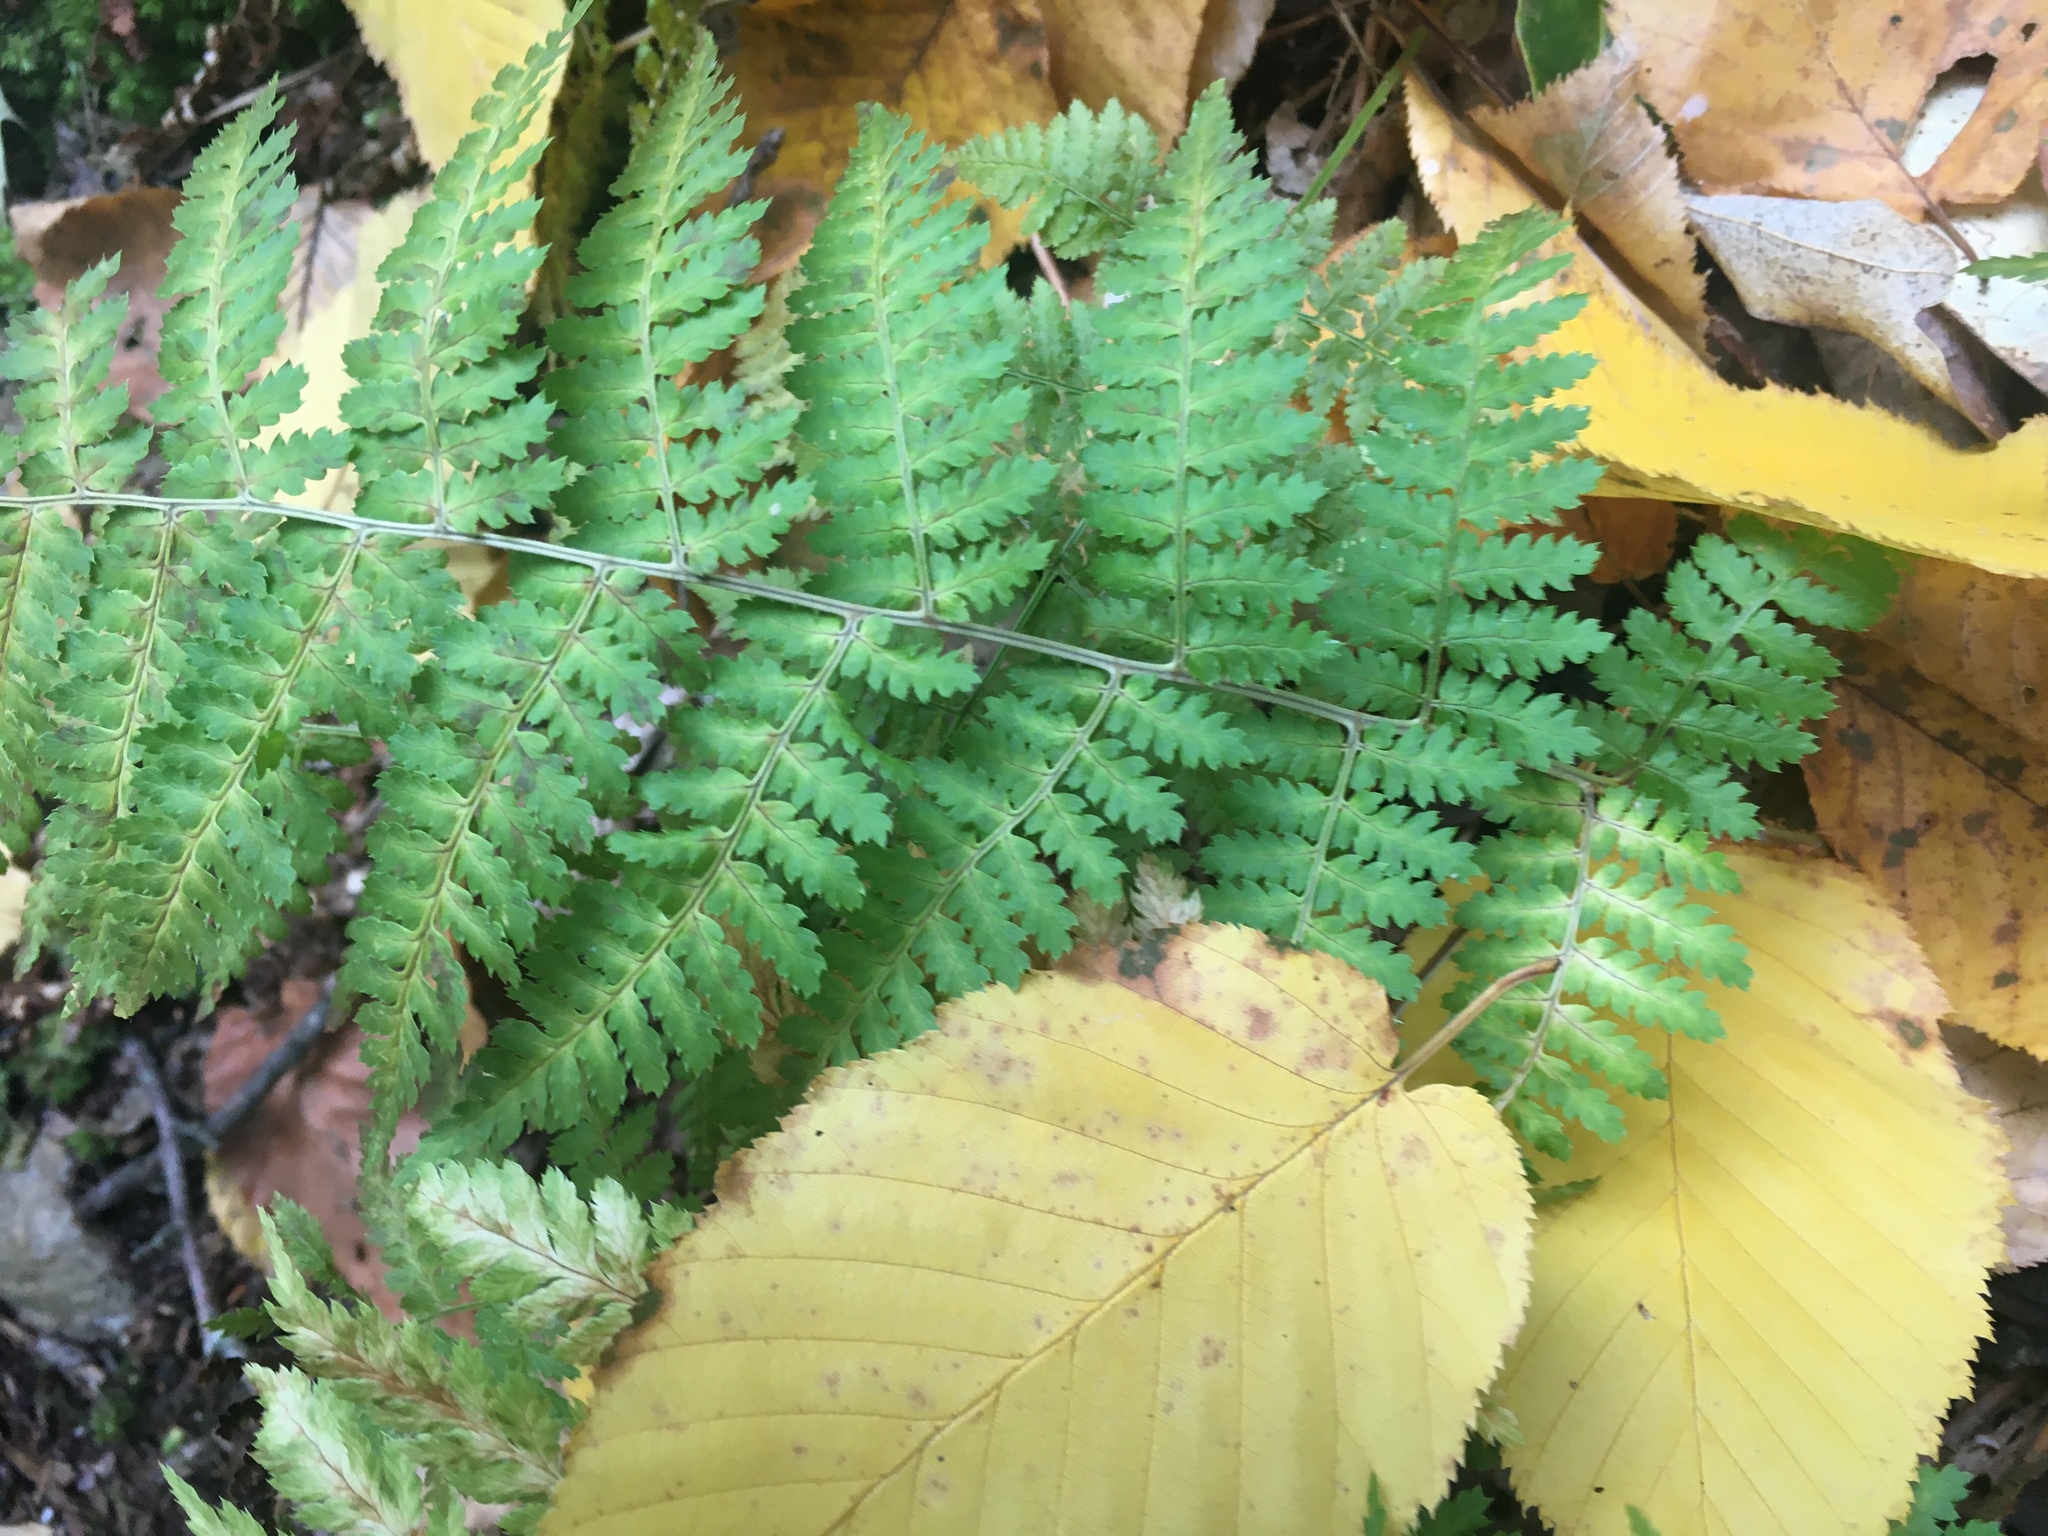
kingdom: Plantae
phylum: Tracheophyta
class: Polypodiopsida
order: Polypodiales
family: Dryopteridaceae
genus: Dryopteris
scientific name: Dryopteris intermedia
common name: Evergreen wood fern
